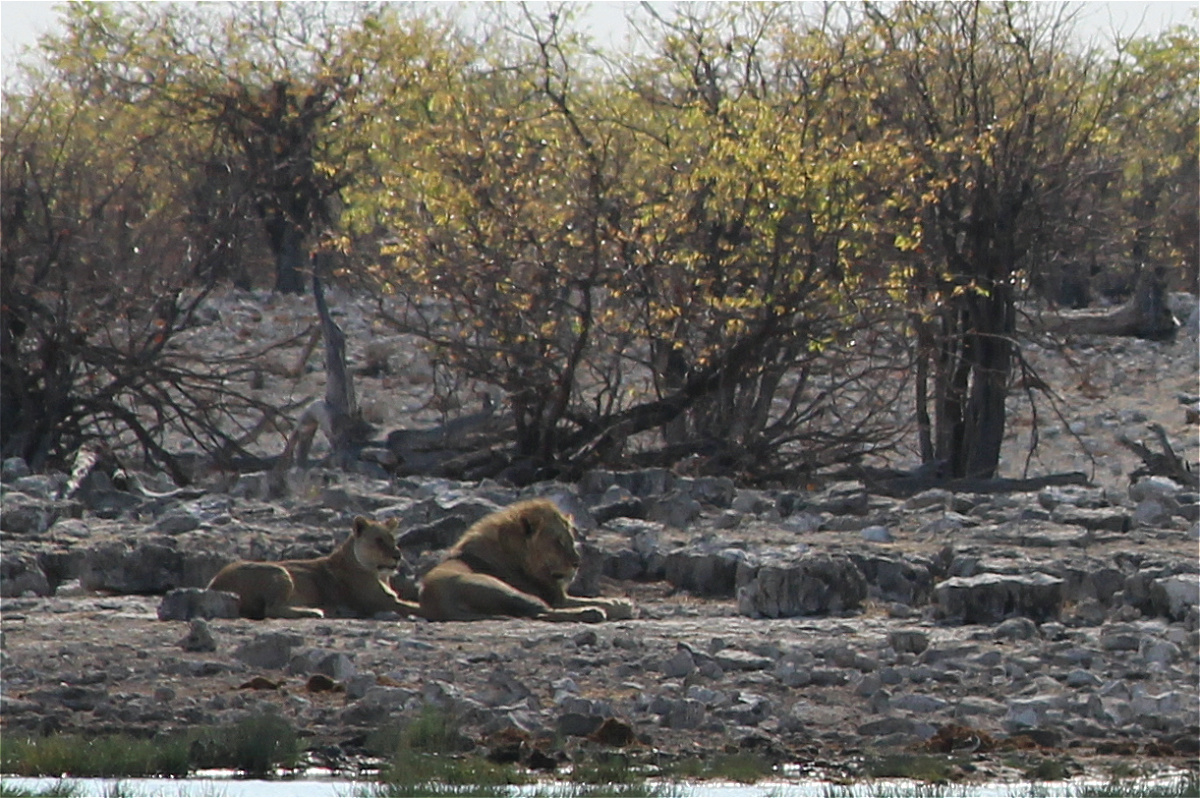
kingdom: Animalia
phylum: Chordata
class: Mammalia
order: Carnivora
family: Felidae
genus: Panthera
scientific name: Panthera leo
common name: Lion
